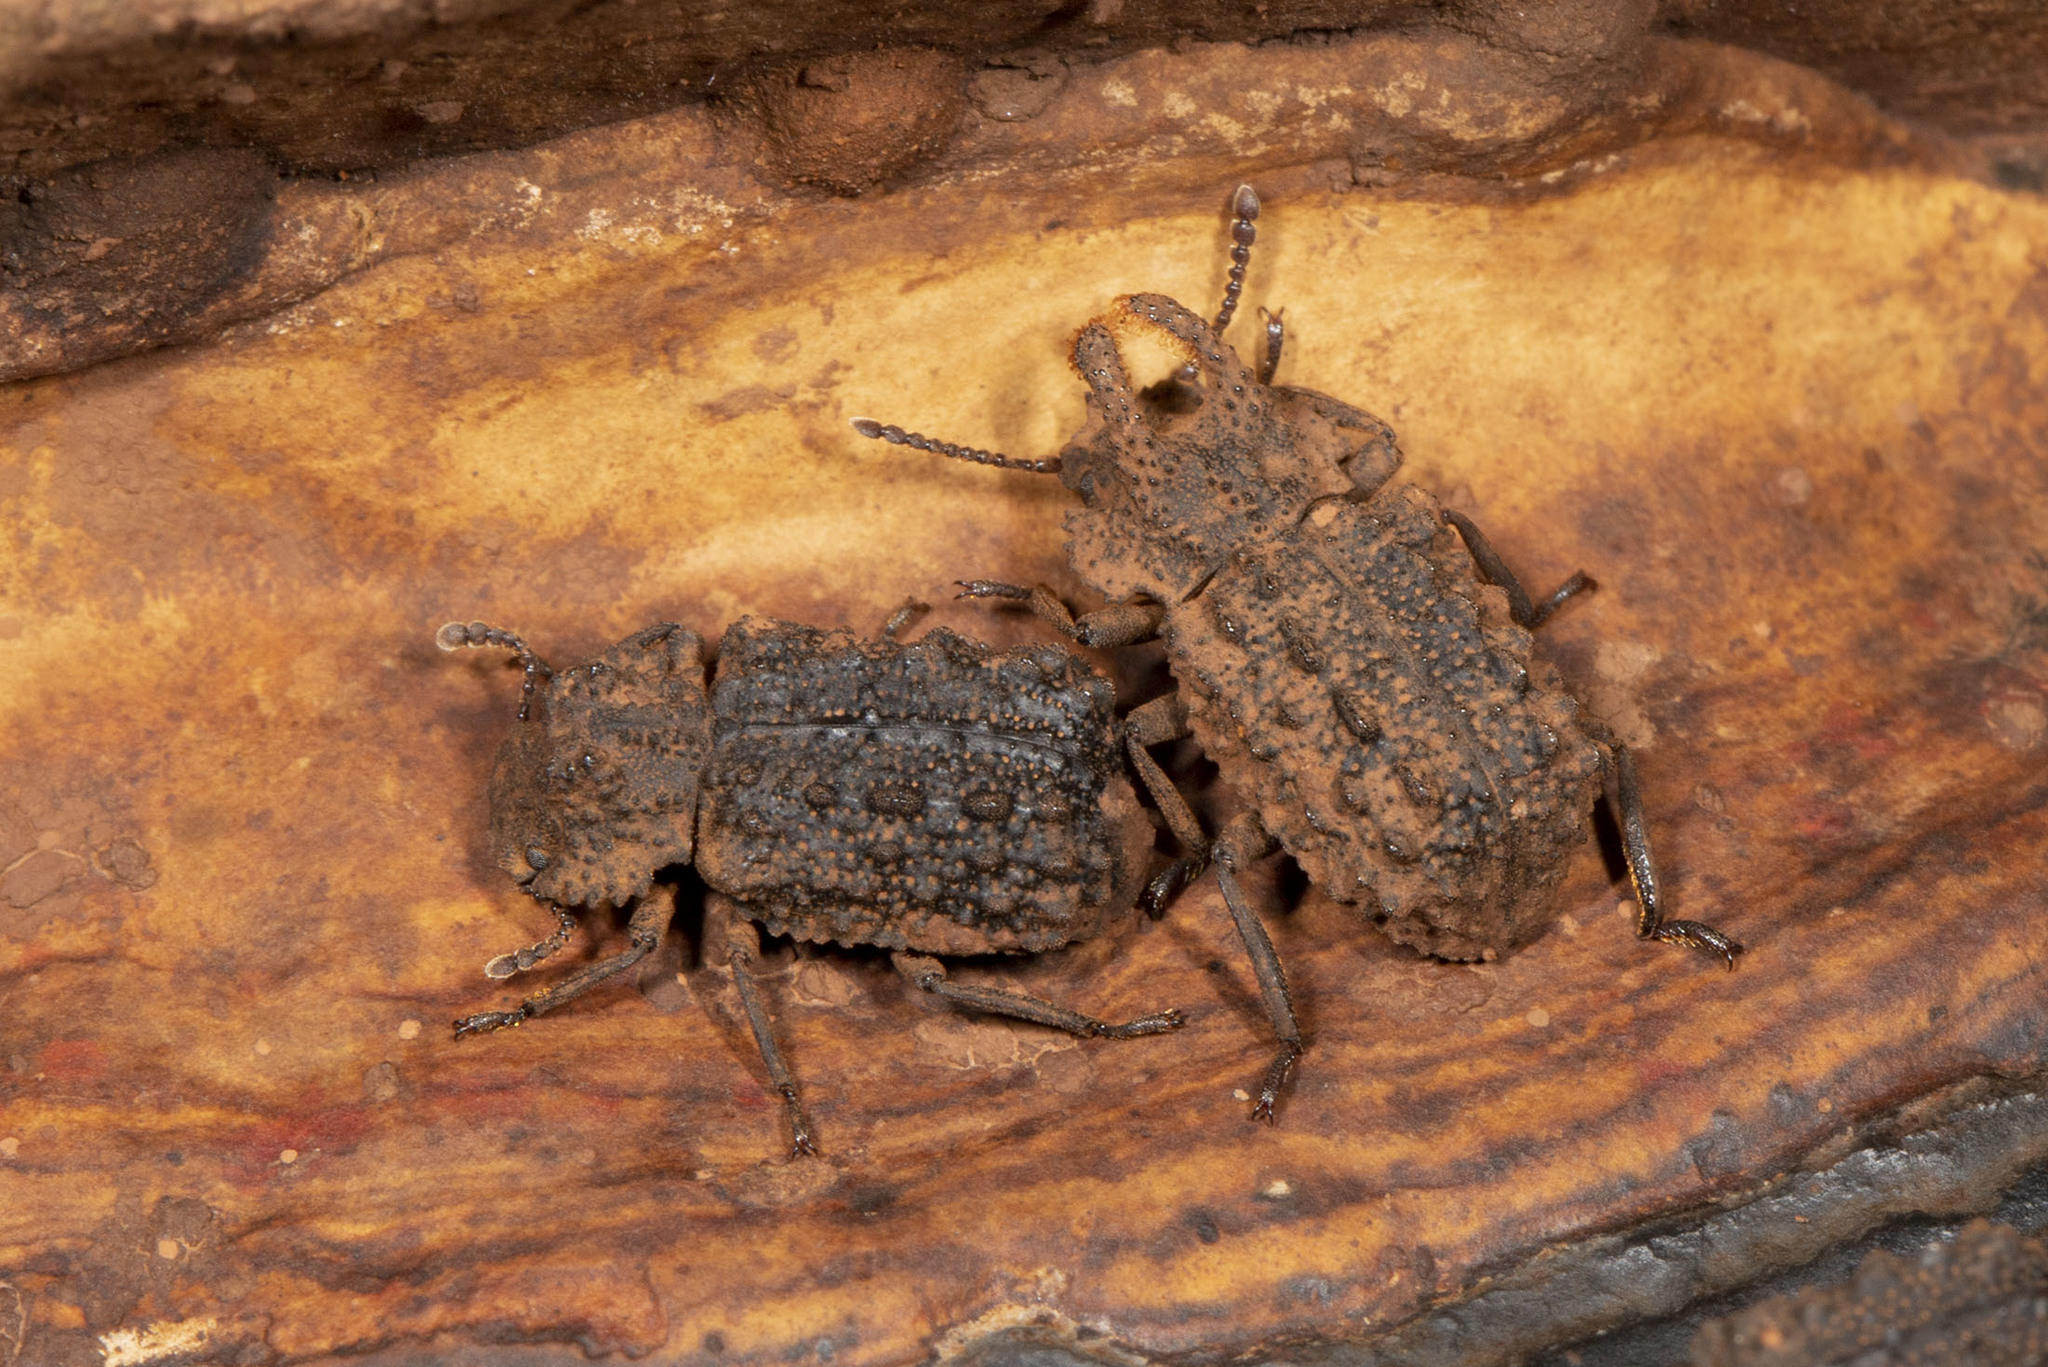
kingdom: Animalia
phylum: Arthropoda
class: Insecta
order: Coleoptera
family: Tenebrionidae
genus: Gnatocerus
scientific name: Gnatocerus cornutus
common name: Broad-horned flour beetle
